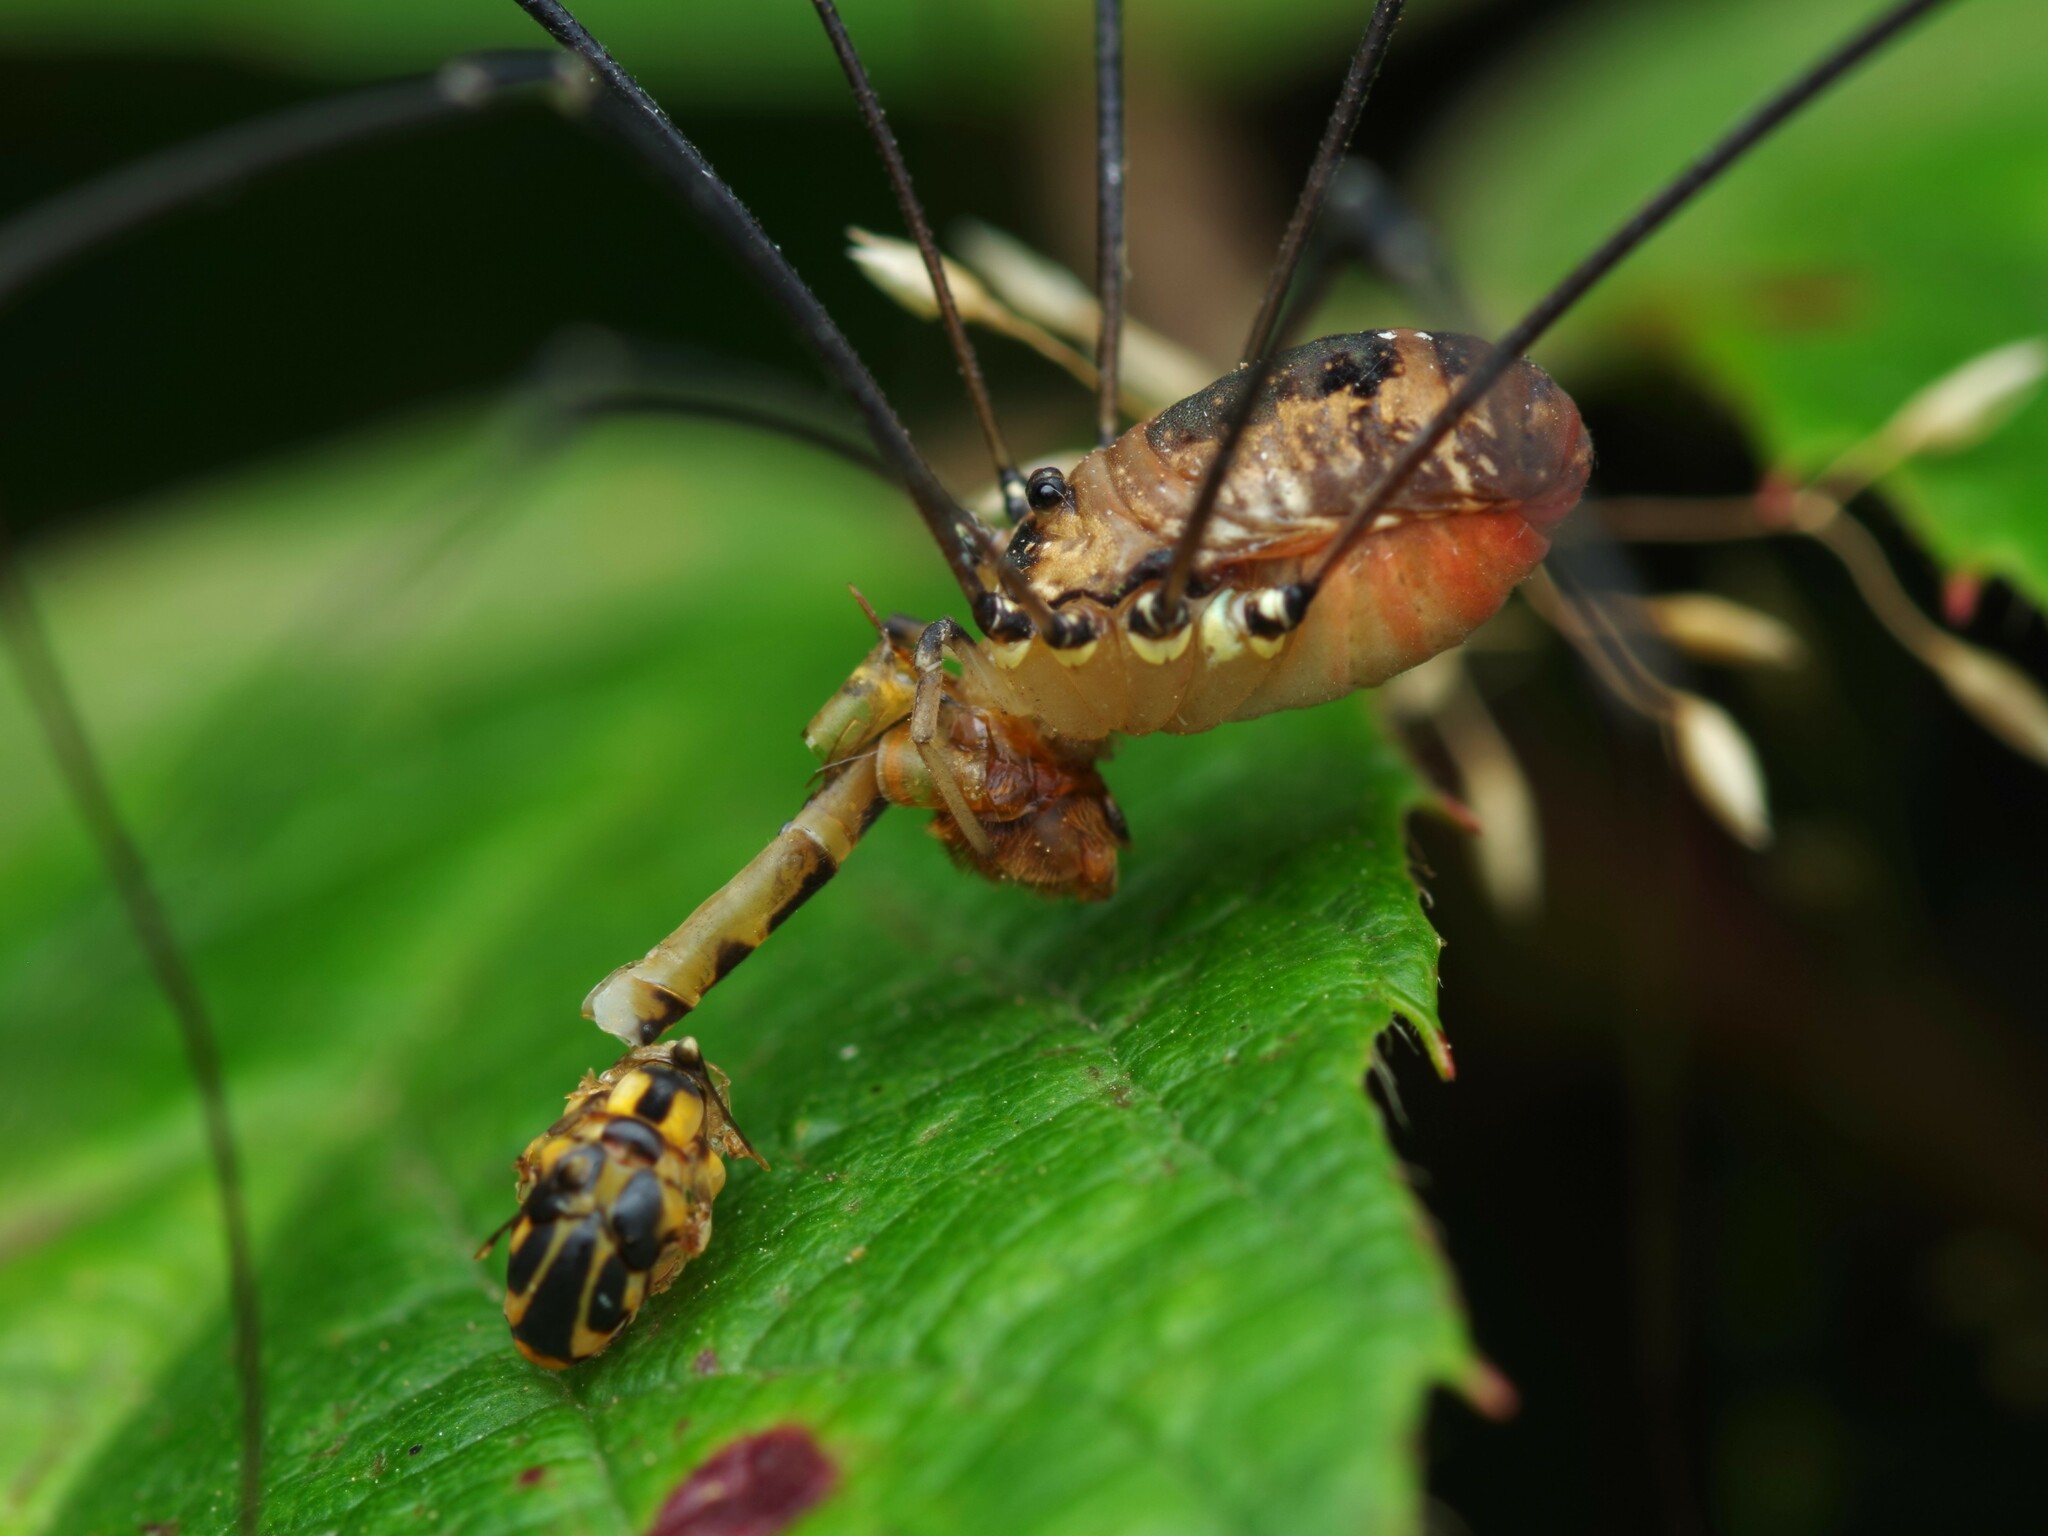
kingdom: Animalia
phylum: Arthropoda
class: Arachnida
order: Opiliones
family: Sclerosomatidae
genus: Leiobunum
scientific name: Leiobunum rotundum
